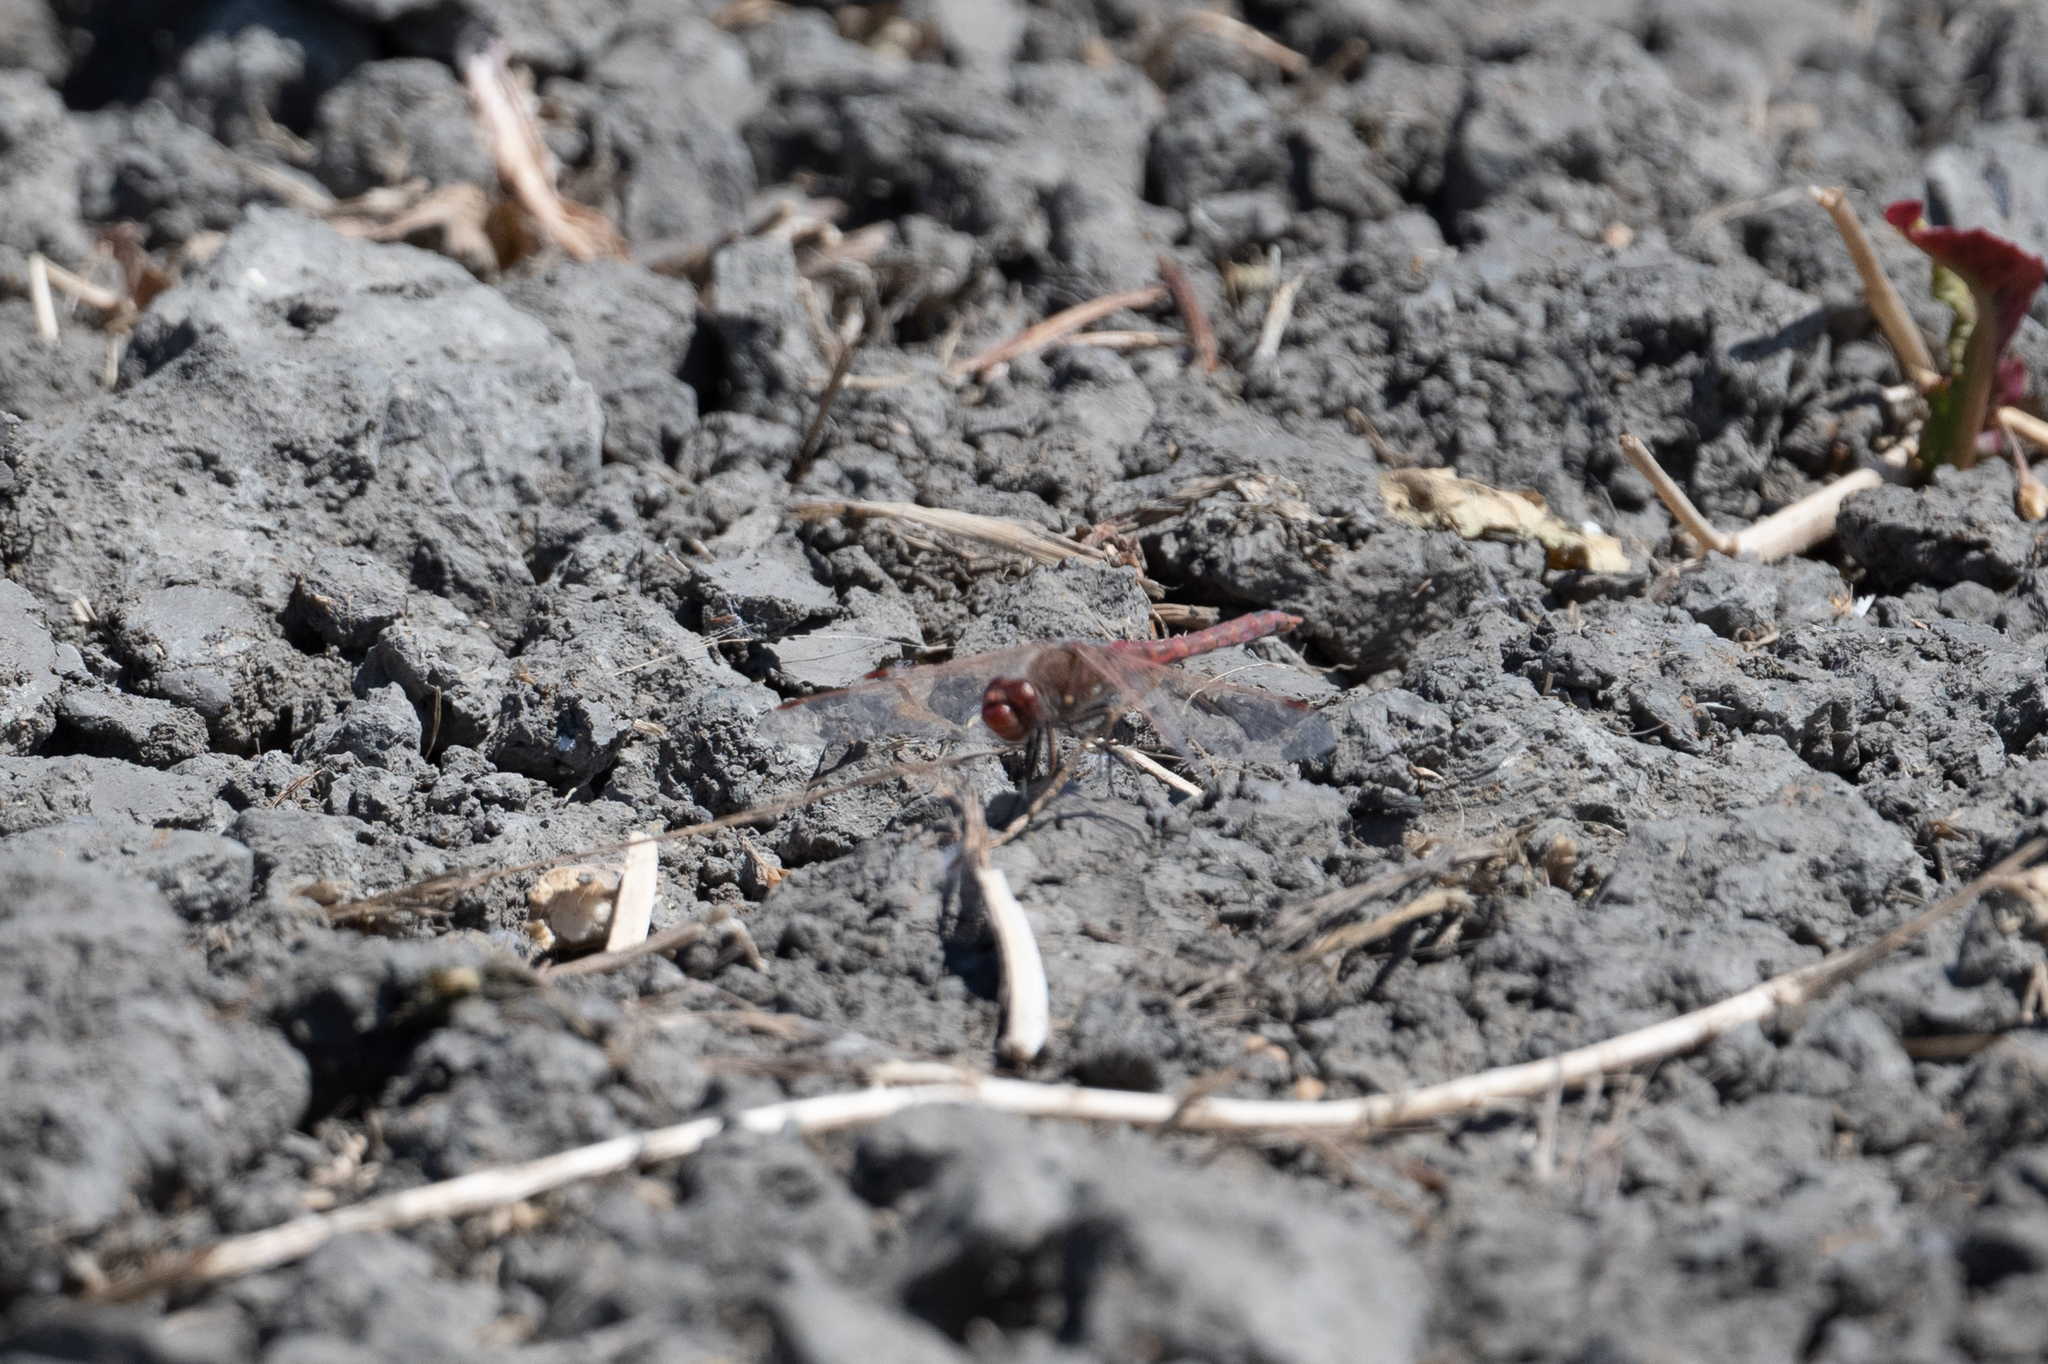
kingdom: Animalia
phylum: Arthropoda
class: Insecta
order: Odonata
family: Libellulidae
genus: Sympetrum
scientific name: Sympetrum corruptum
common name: Variegated meadowhawk
